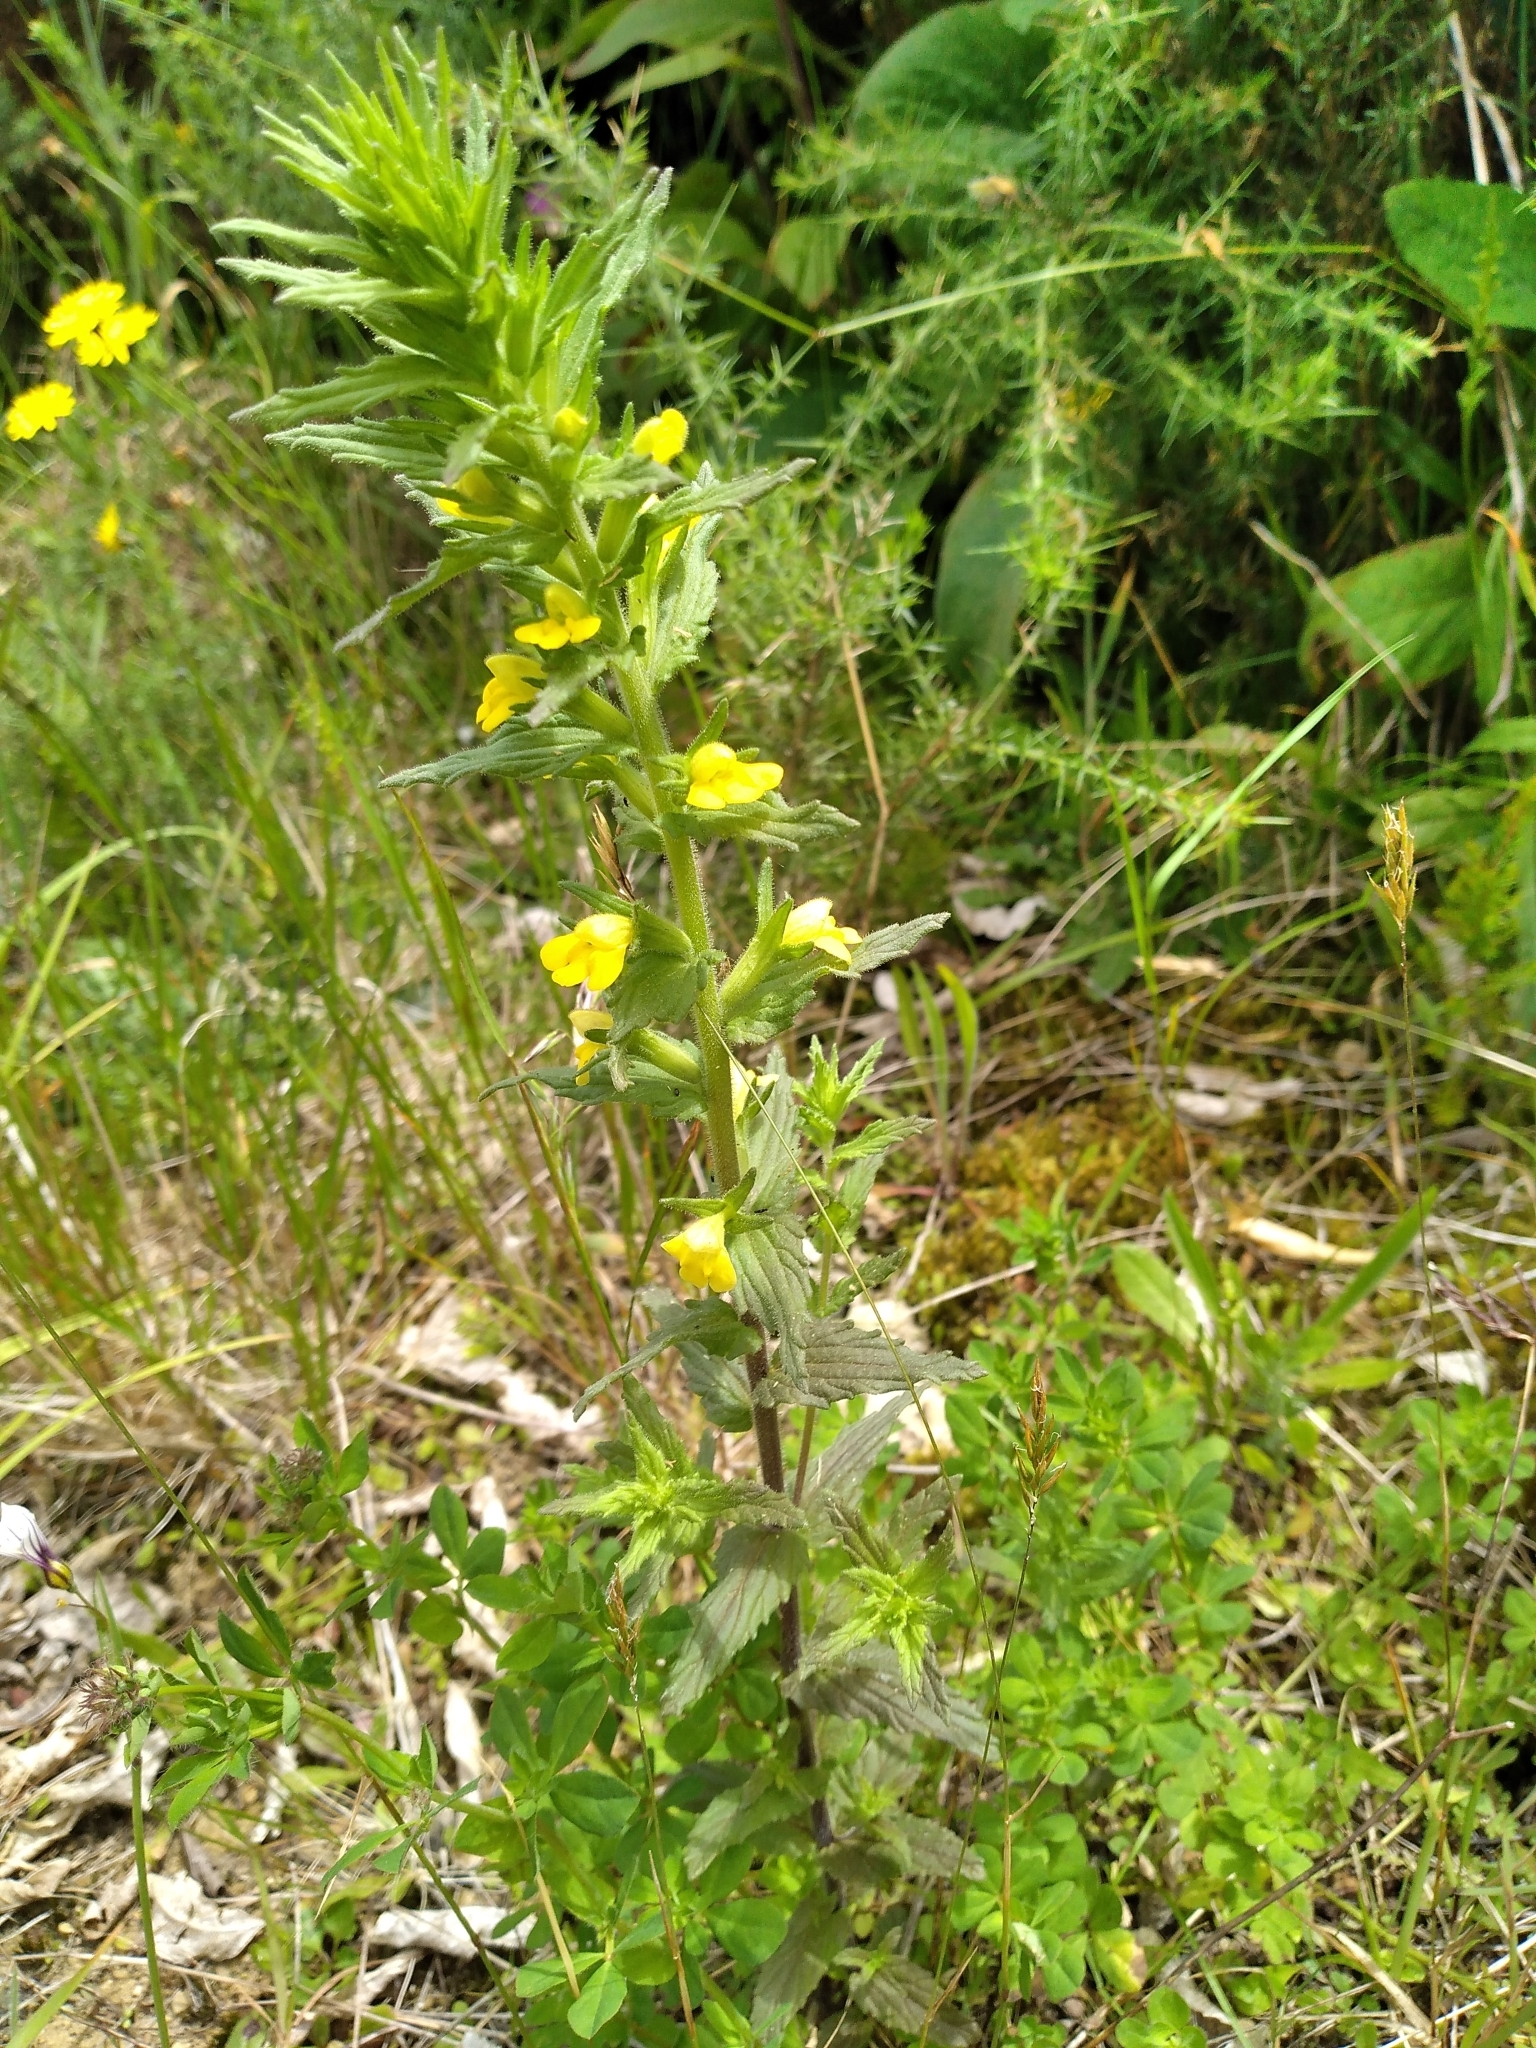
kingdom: Plantae
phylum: Tracheophyta
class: Magnoliopsida
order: Lamiales
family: Orobanchaceae
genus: Bellardia
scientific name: Bellardia viscosa
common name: Sticky parentucellia
